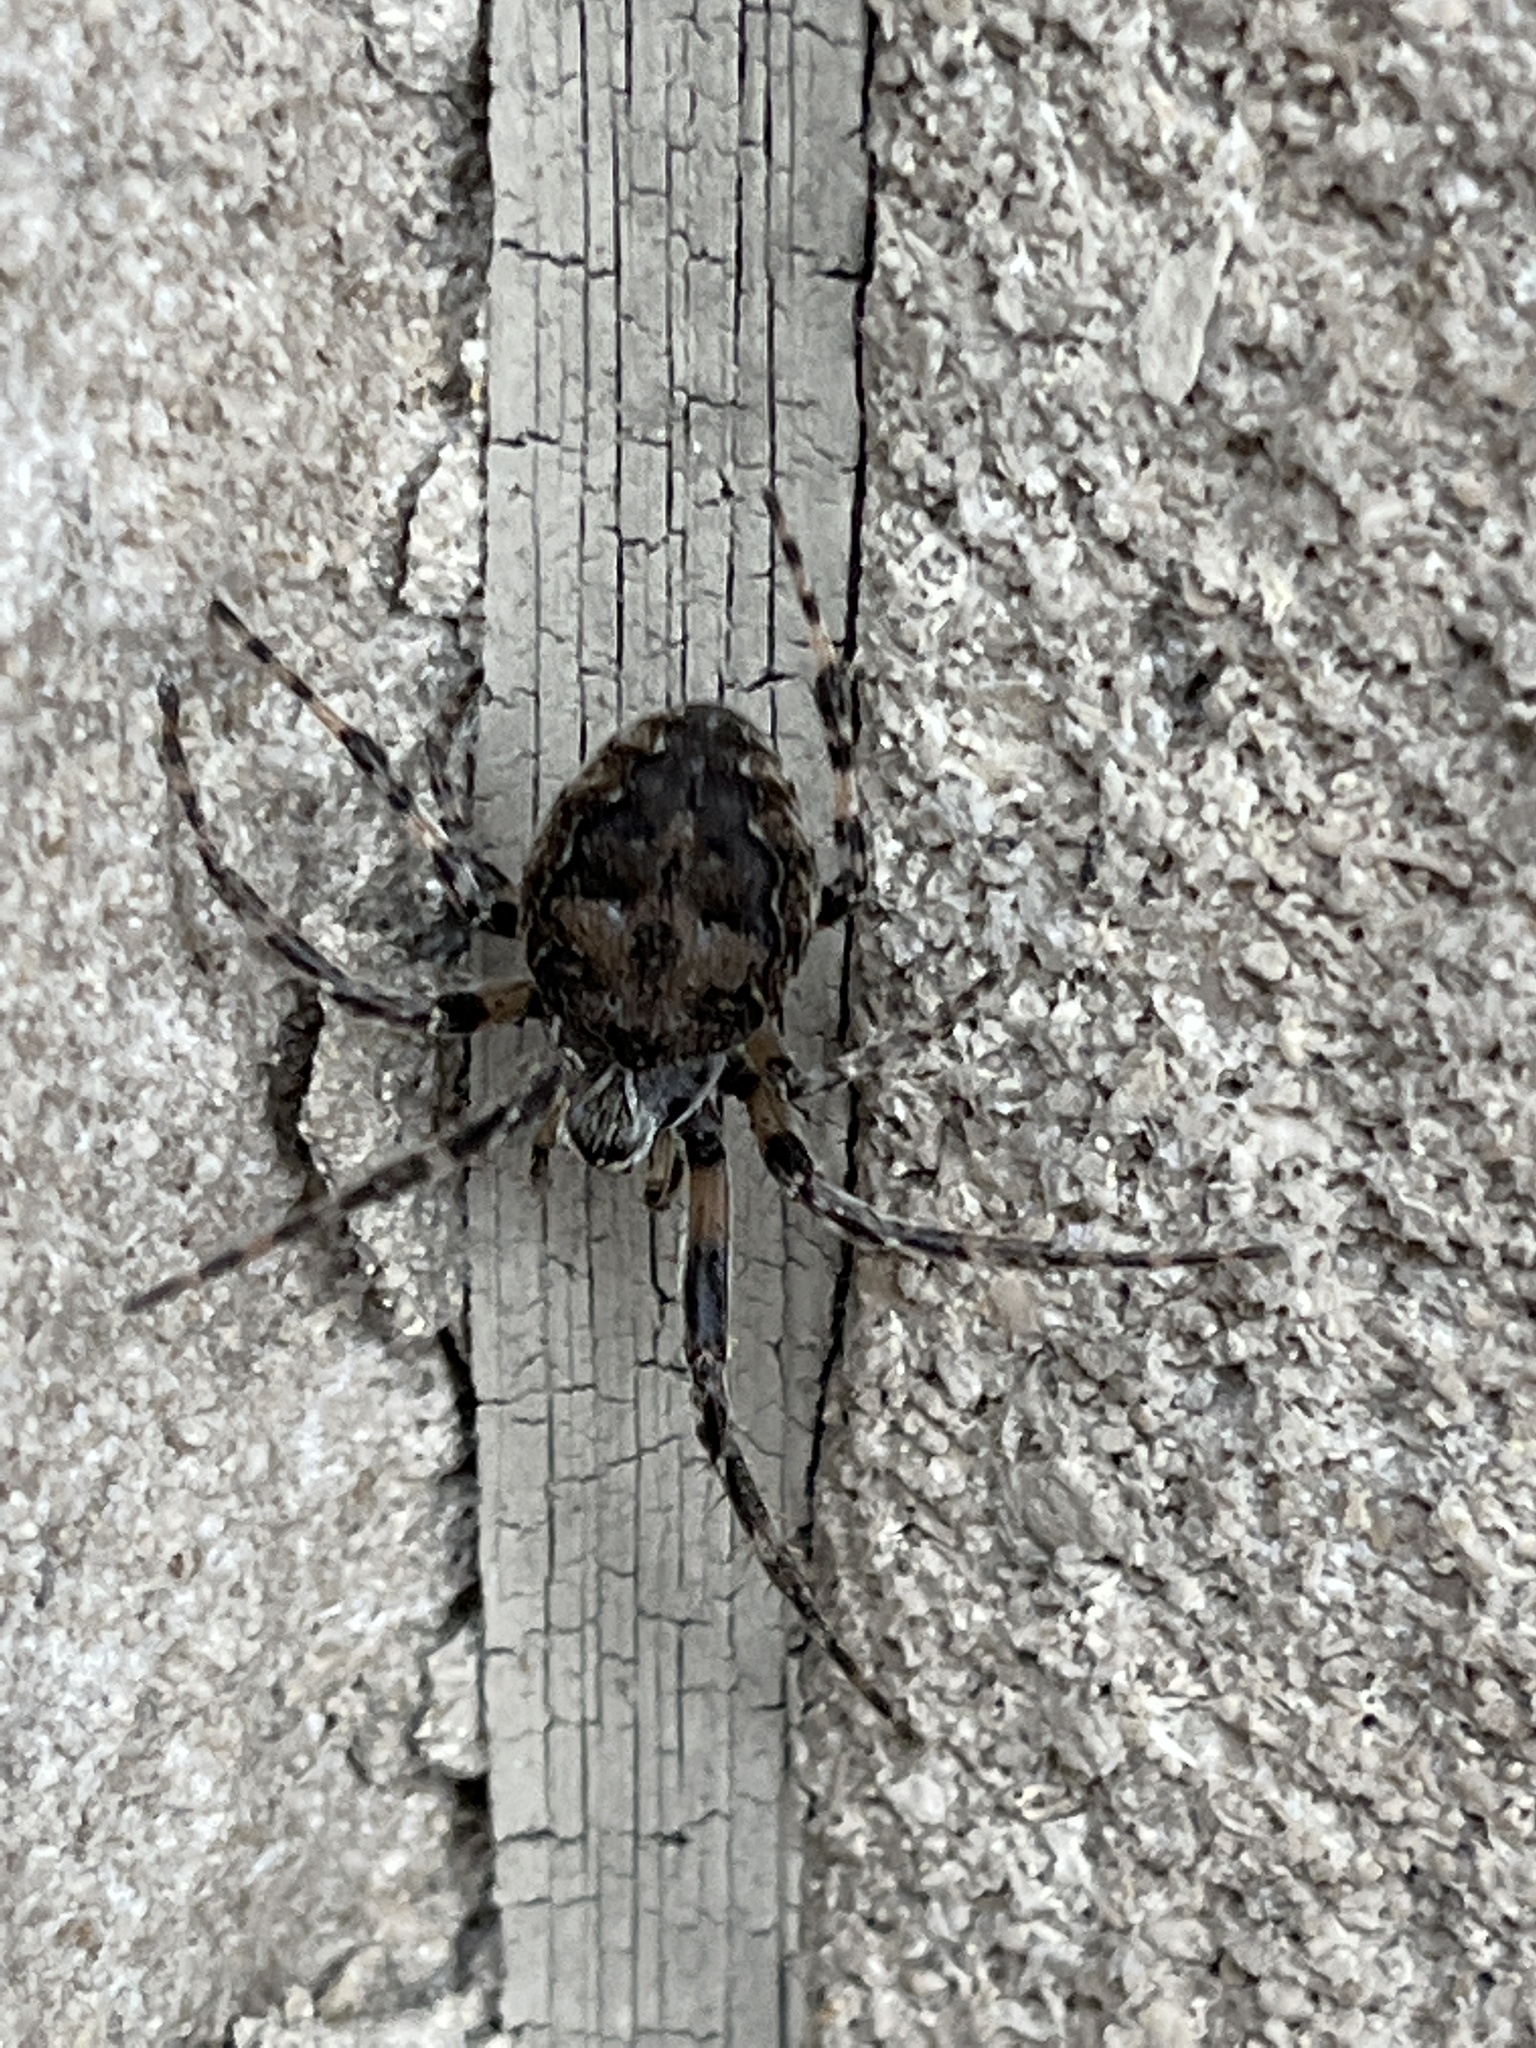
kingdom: Animalia
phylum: Arthropoda
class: Arachnida
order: Araneae
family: Araneidae
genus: Larinioides
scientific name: Larinioides sclopetarius
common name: Bridge orbweaver
